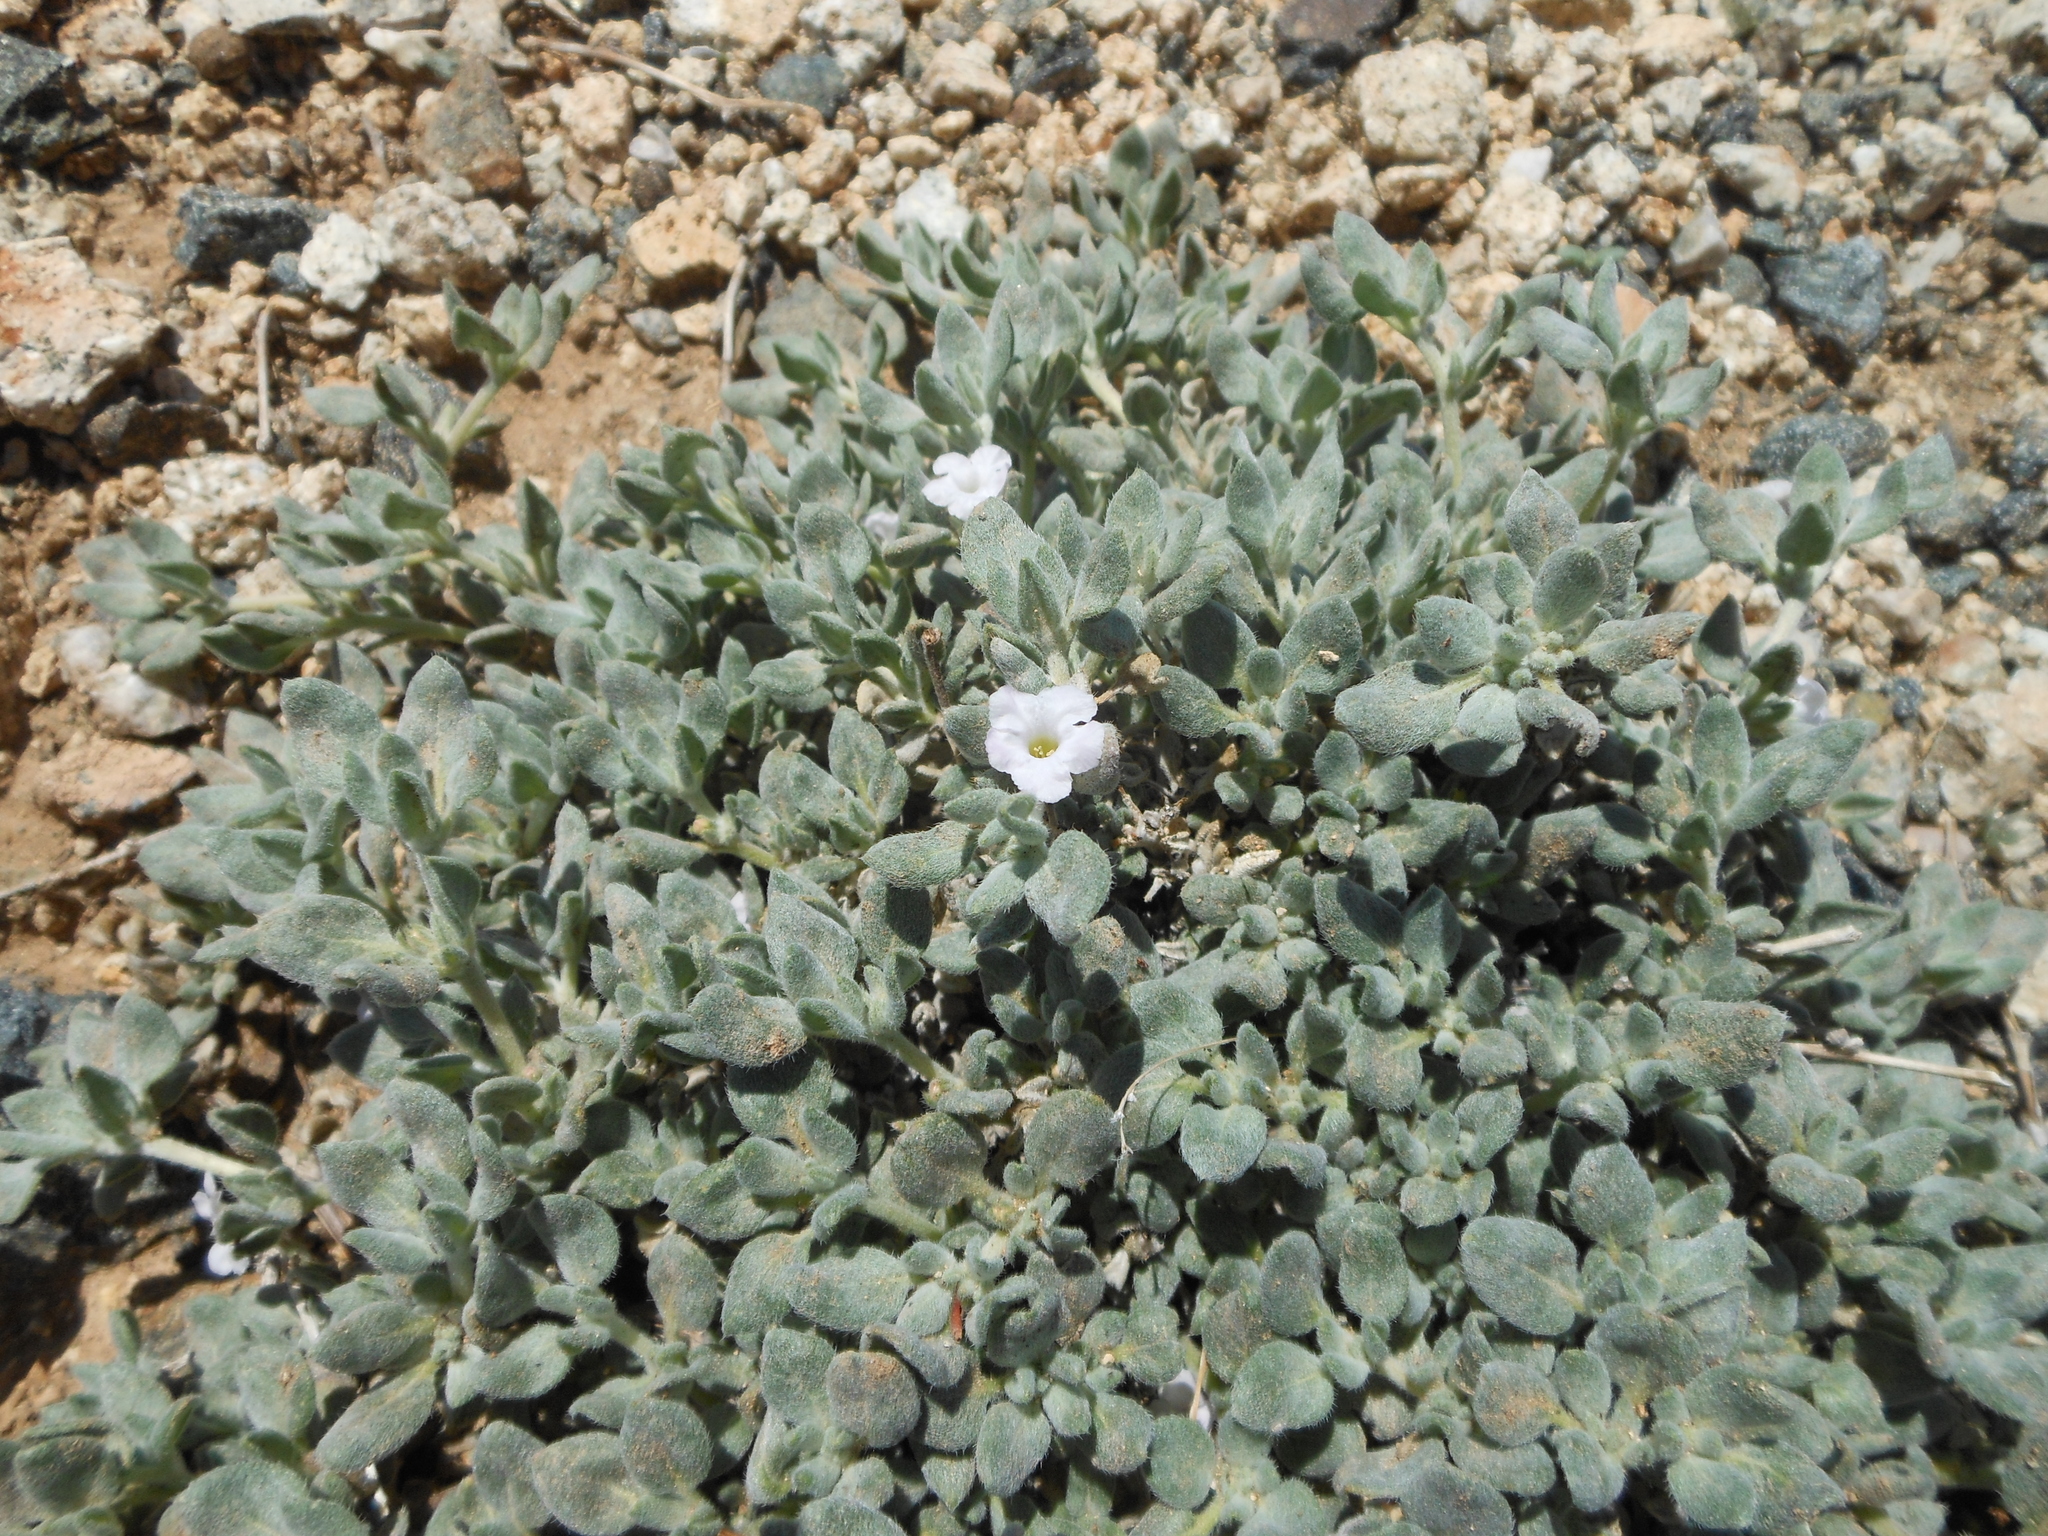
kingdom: Plantae
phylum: Tracheophyta
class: Magnoliopsida
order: Boraginales
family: Ehretiaceae
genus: Tiquilia
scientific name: Tiquilia canescens
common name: Hairy tiquilia
